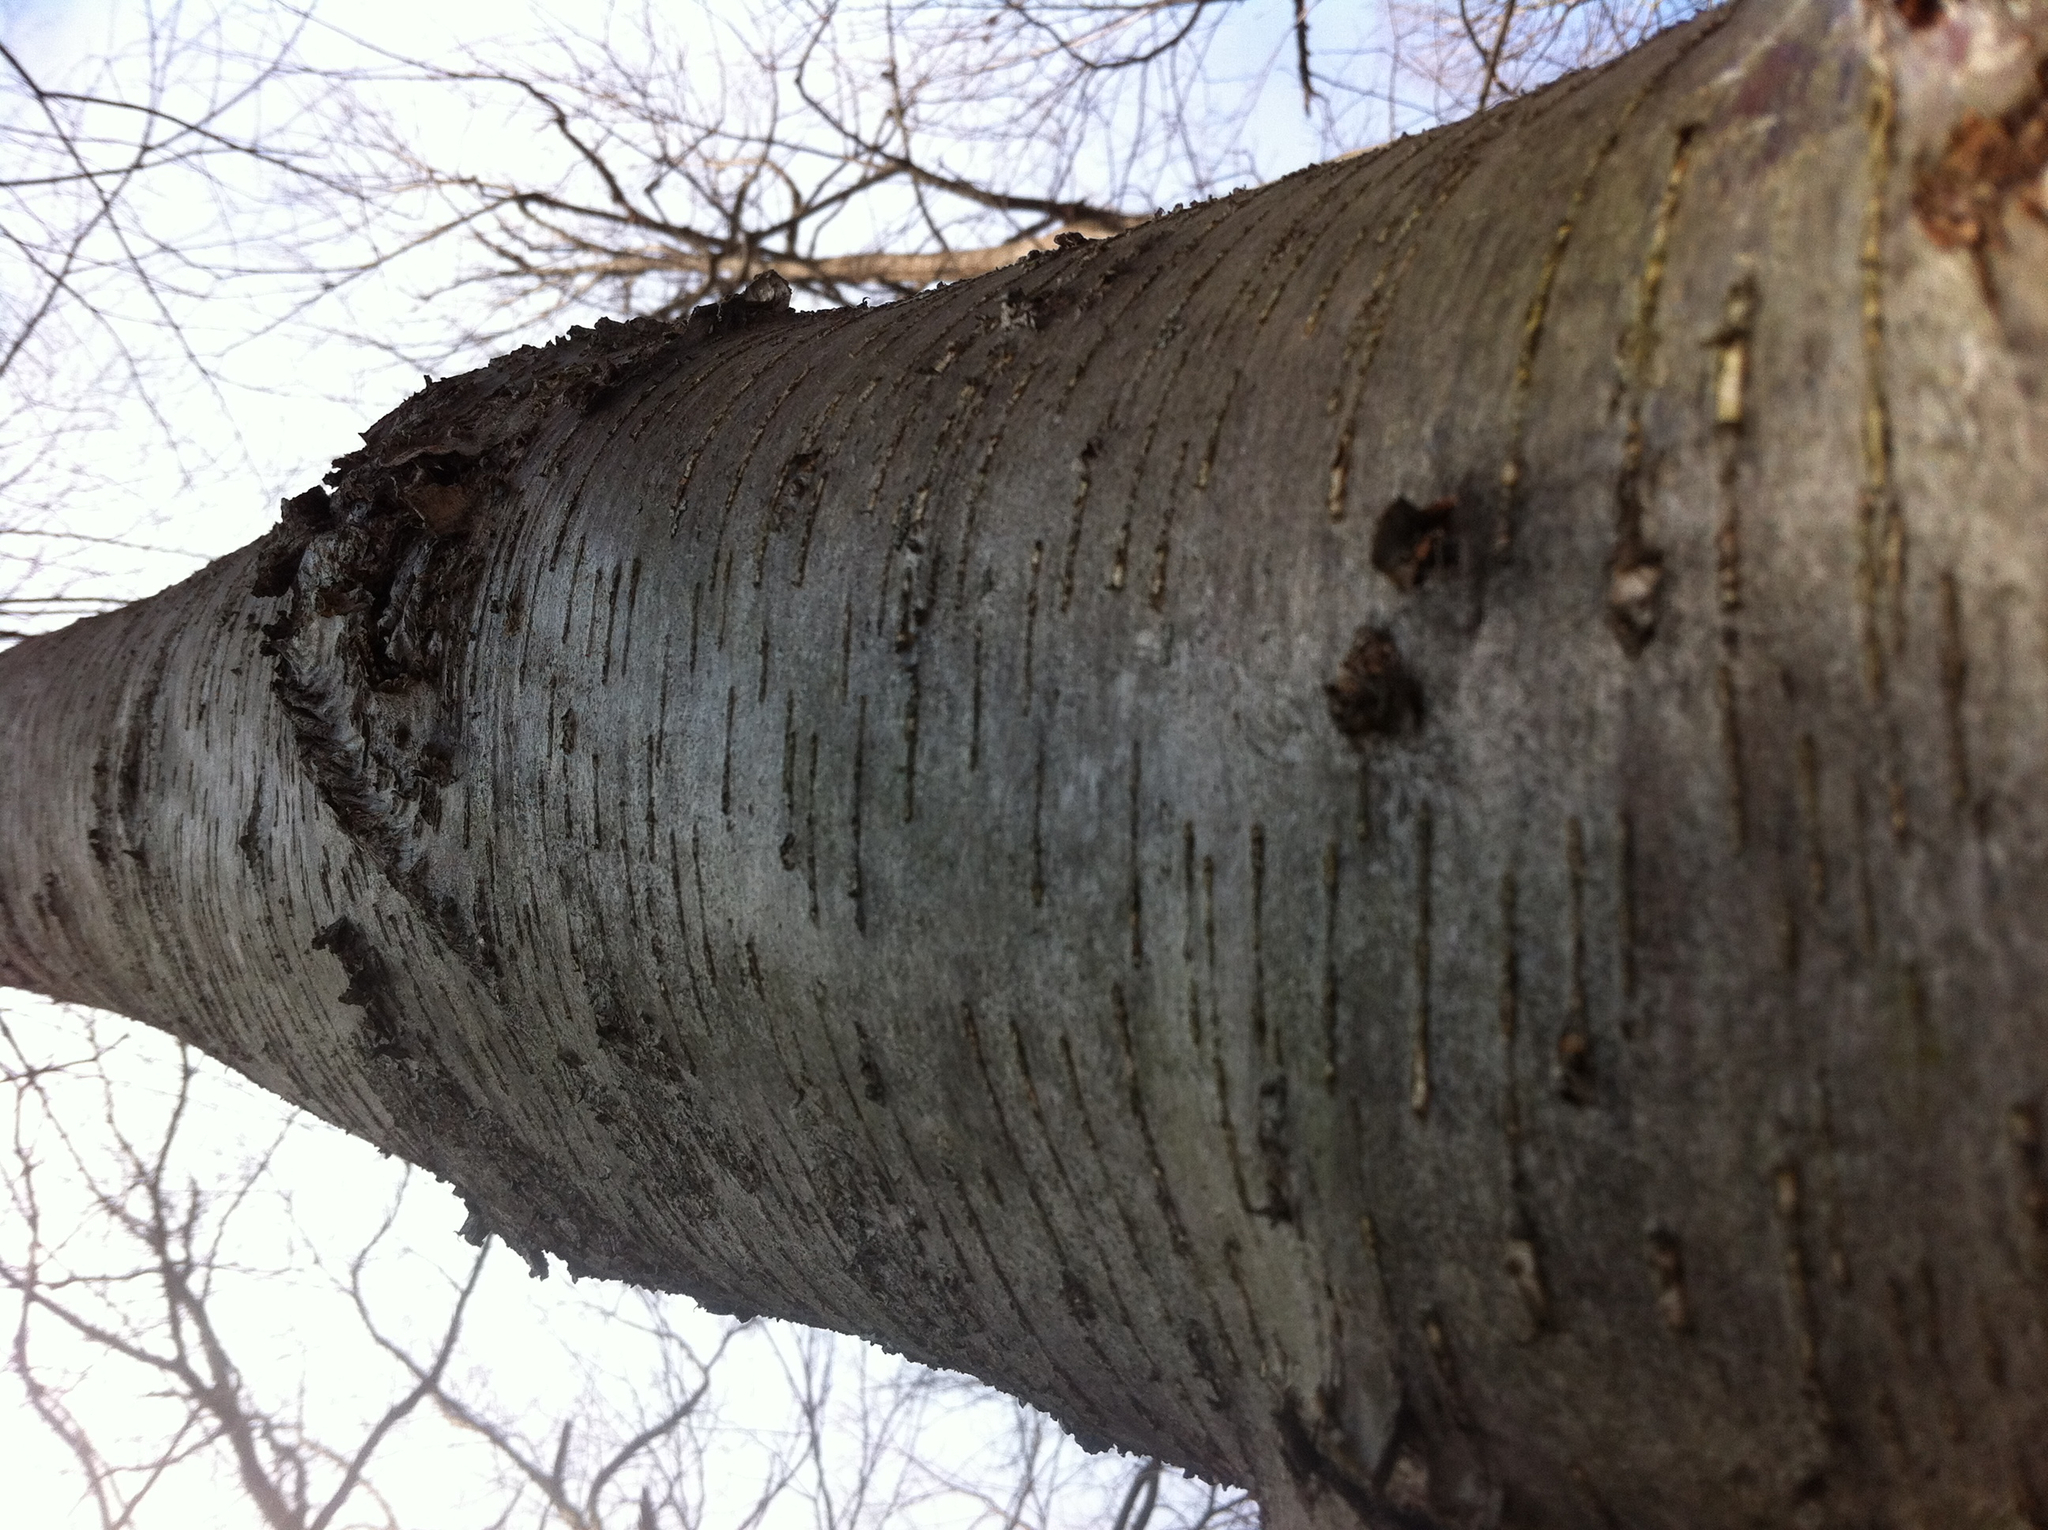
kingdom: Plantae
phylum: Tracheophyta
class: Magnoliopsida
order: Fagales
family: Betulaceae
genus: Betula
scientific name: Betula lenta
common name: Black birch
